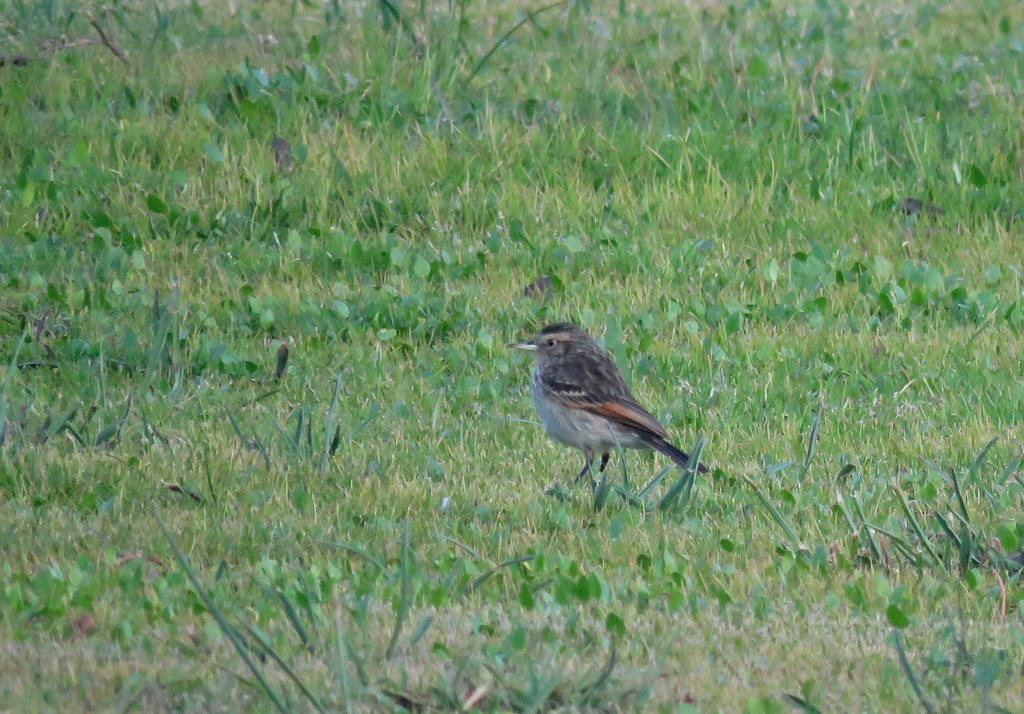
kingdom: Animalia
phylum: Chordata
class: Aves
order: Passeriformes
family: Tyrannidae
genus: Hymenops
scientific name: Hymenops perspicillatus
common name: Spectacled tyrant
